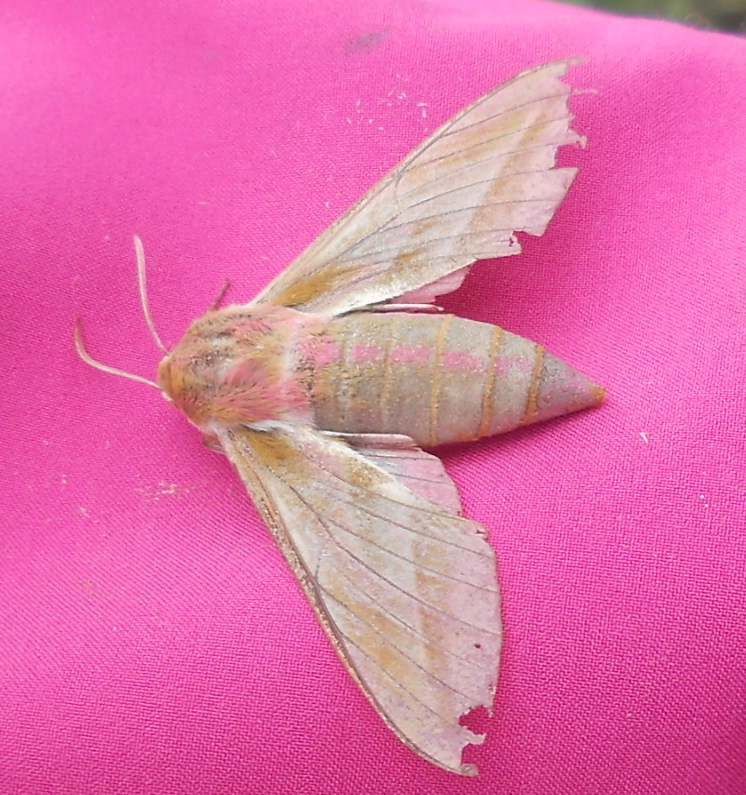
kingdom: Animalia
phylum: Arthropoda
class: Insecta
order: Lepidoptera
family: Sphingidae
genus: Deilephila
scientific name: Deilephila elpenor
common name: Elephant hawk-moth
